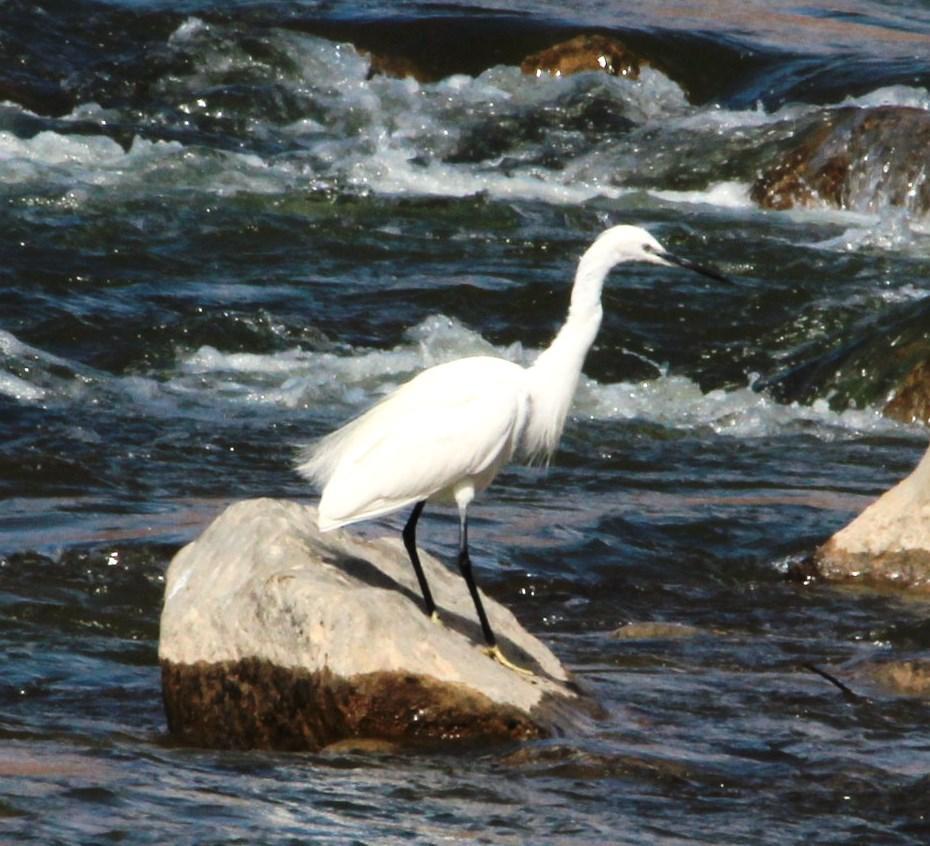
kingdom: Animalia
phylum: Chordata
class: Aves
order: Pelecaniformes
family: Ardeidae
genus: Egretta
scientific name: Egretta garzetta
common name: Little egret
